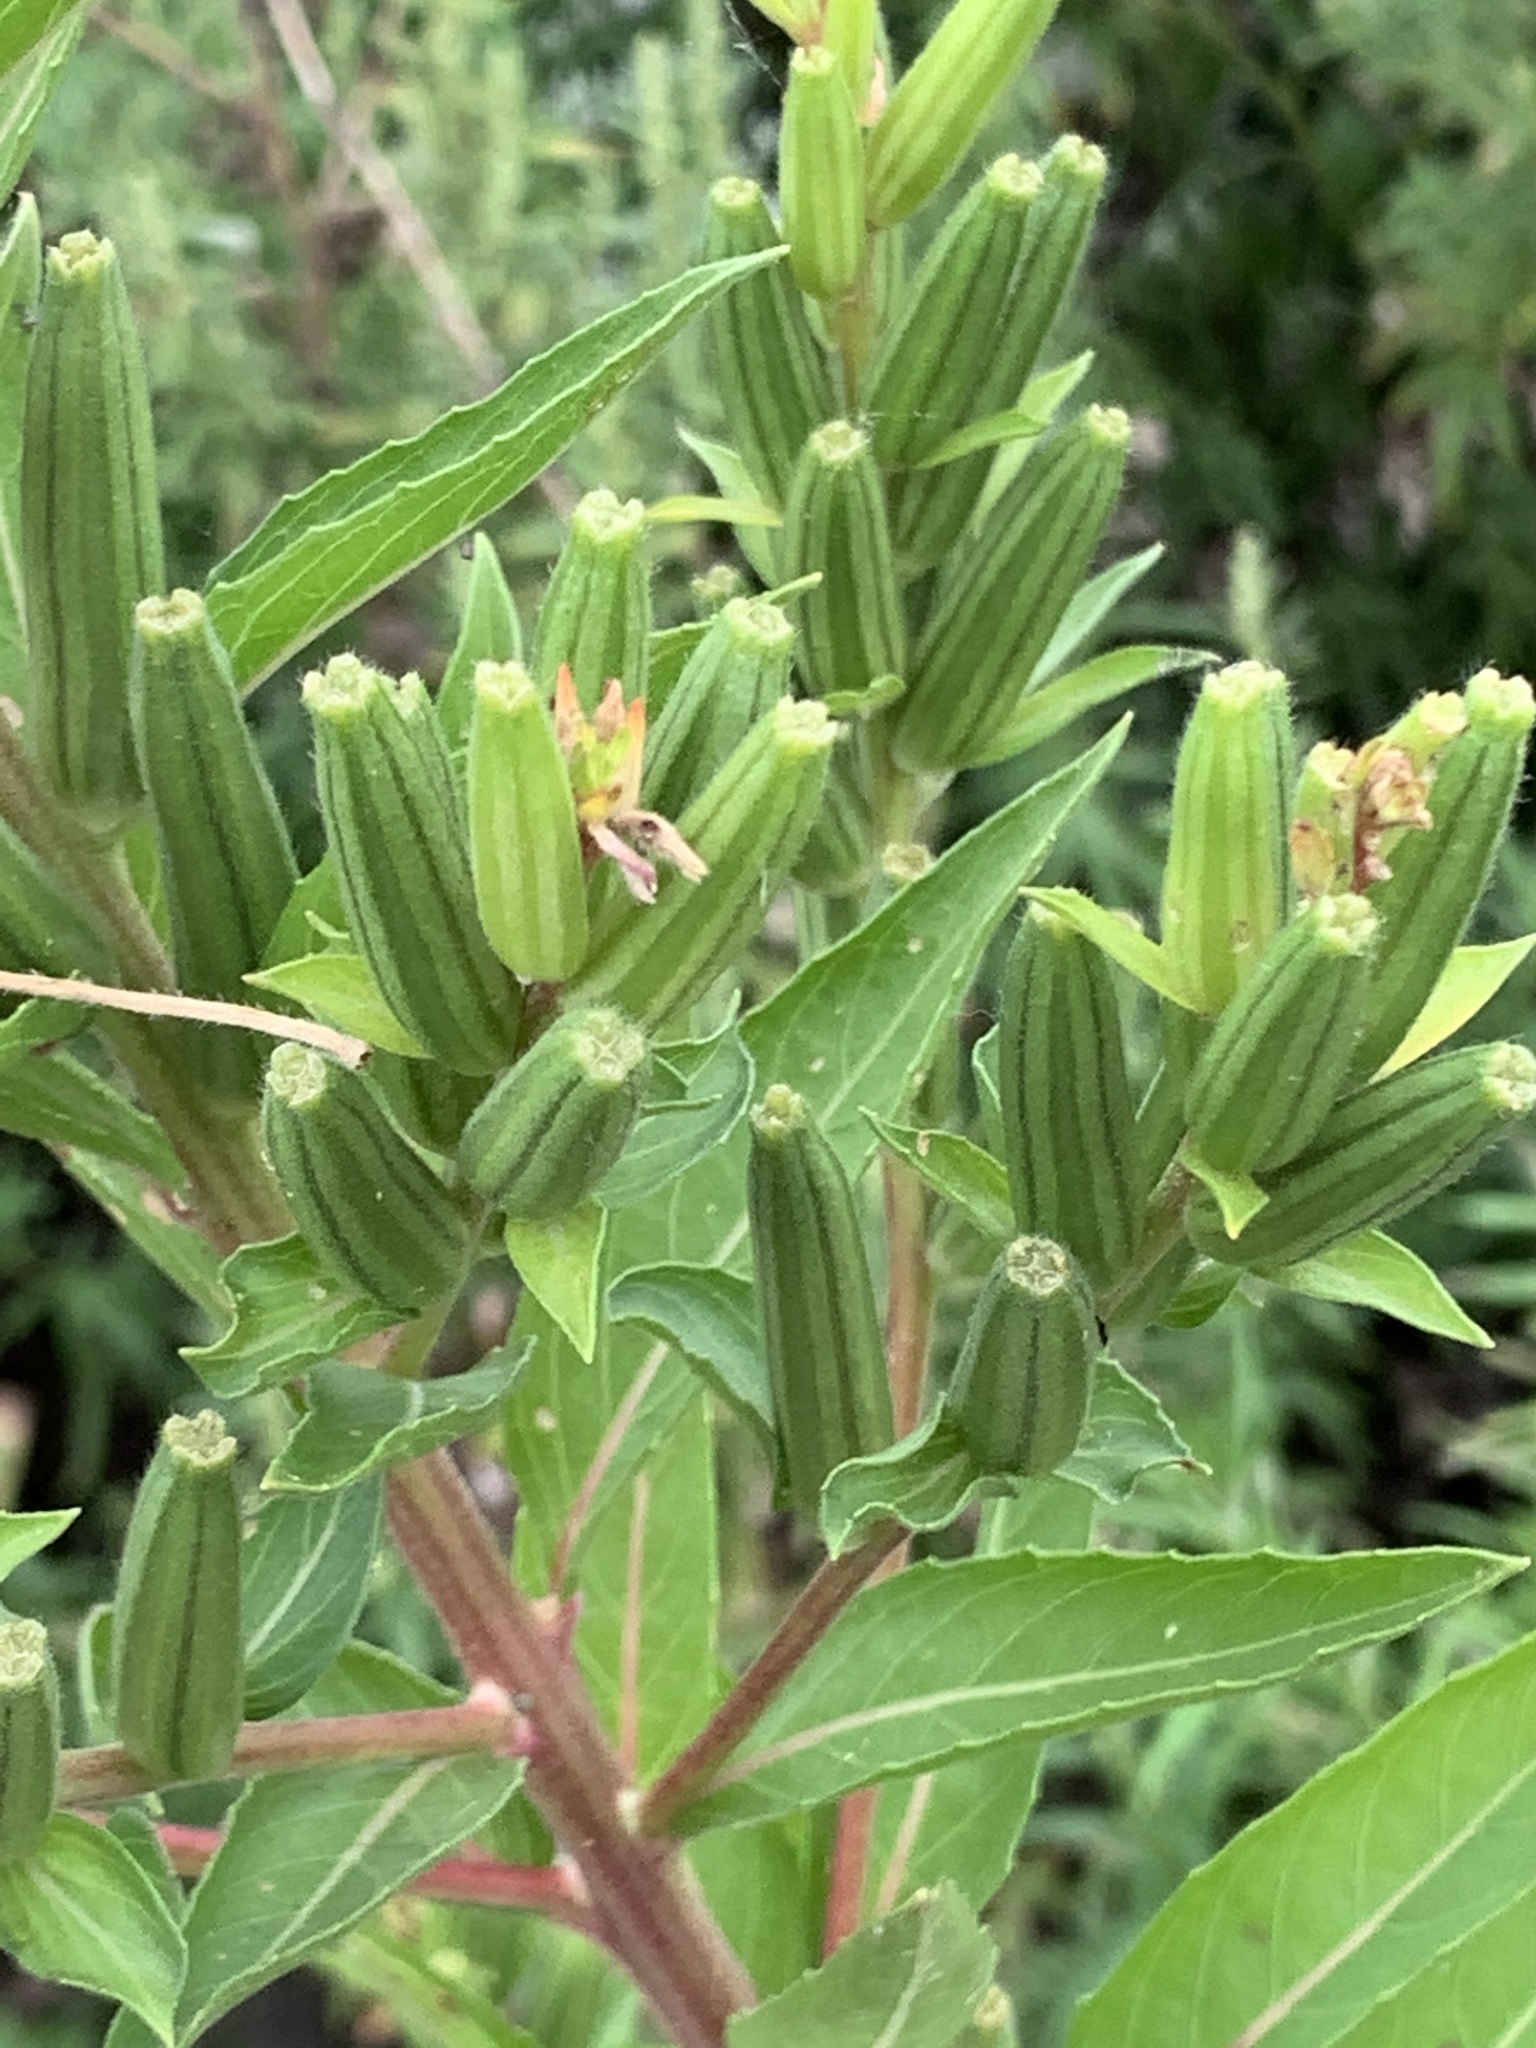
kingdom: Plantae
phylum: Tracheophyta
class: Magnoliopsida
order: Myrtales
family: Onagraceae
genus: Oenothera
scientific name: Oenothera biennis
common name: Common evening-primrose
